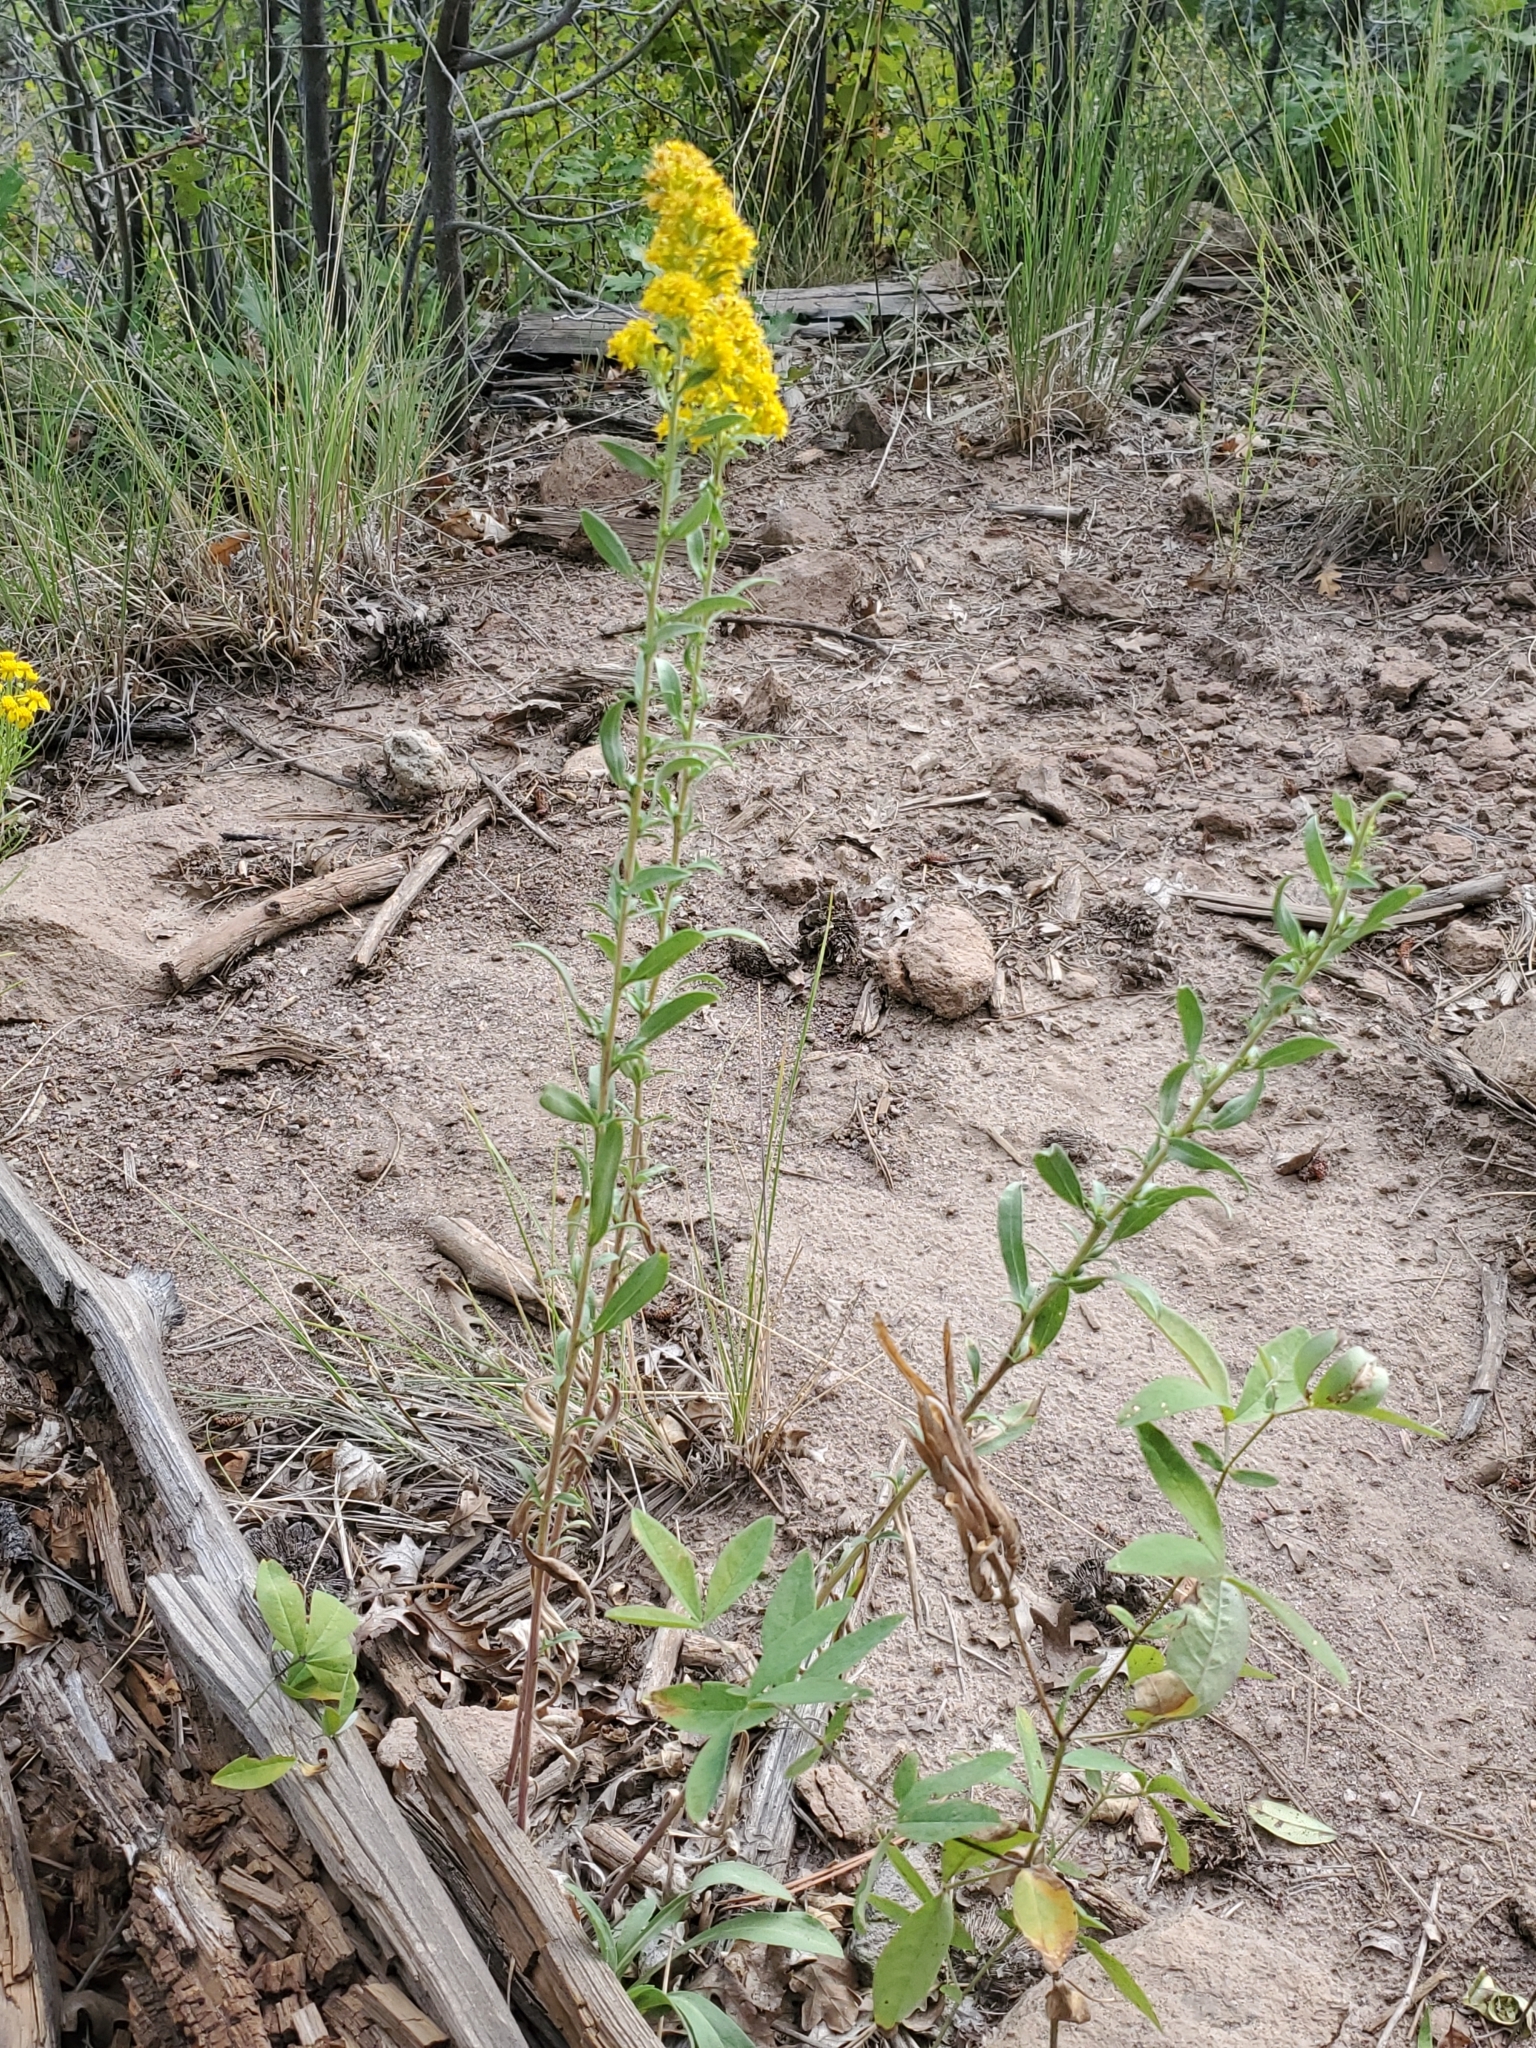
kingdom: Plantae
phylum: Tracheophyta
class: Magnoliopsida
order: Asterales
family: Asteraceae
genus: Solidago
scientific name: Solidago nemoralis
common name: Grey goldenrod
